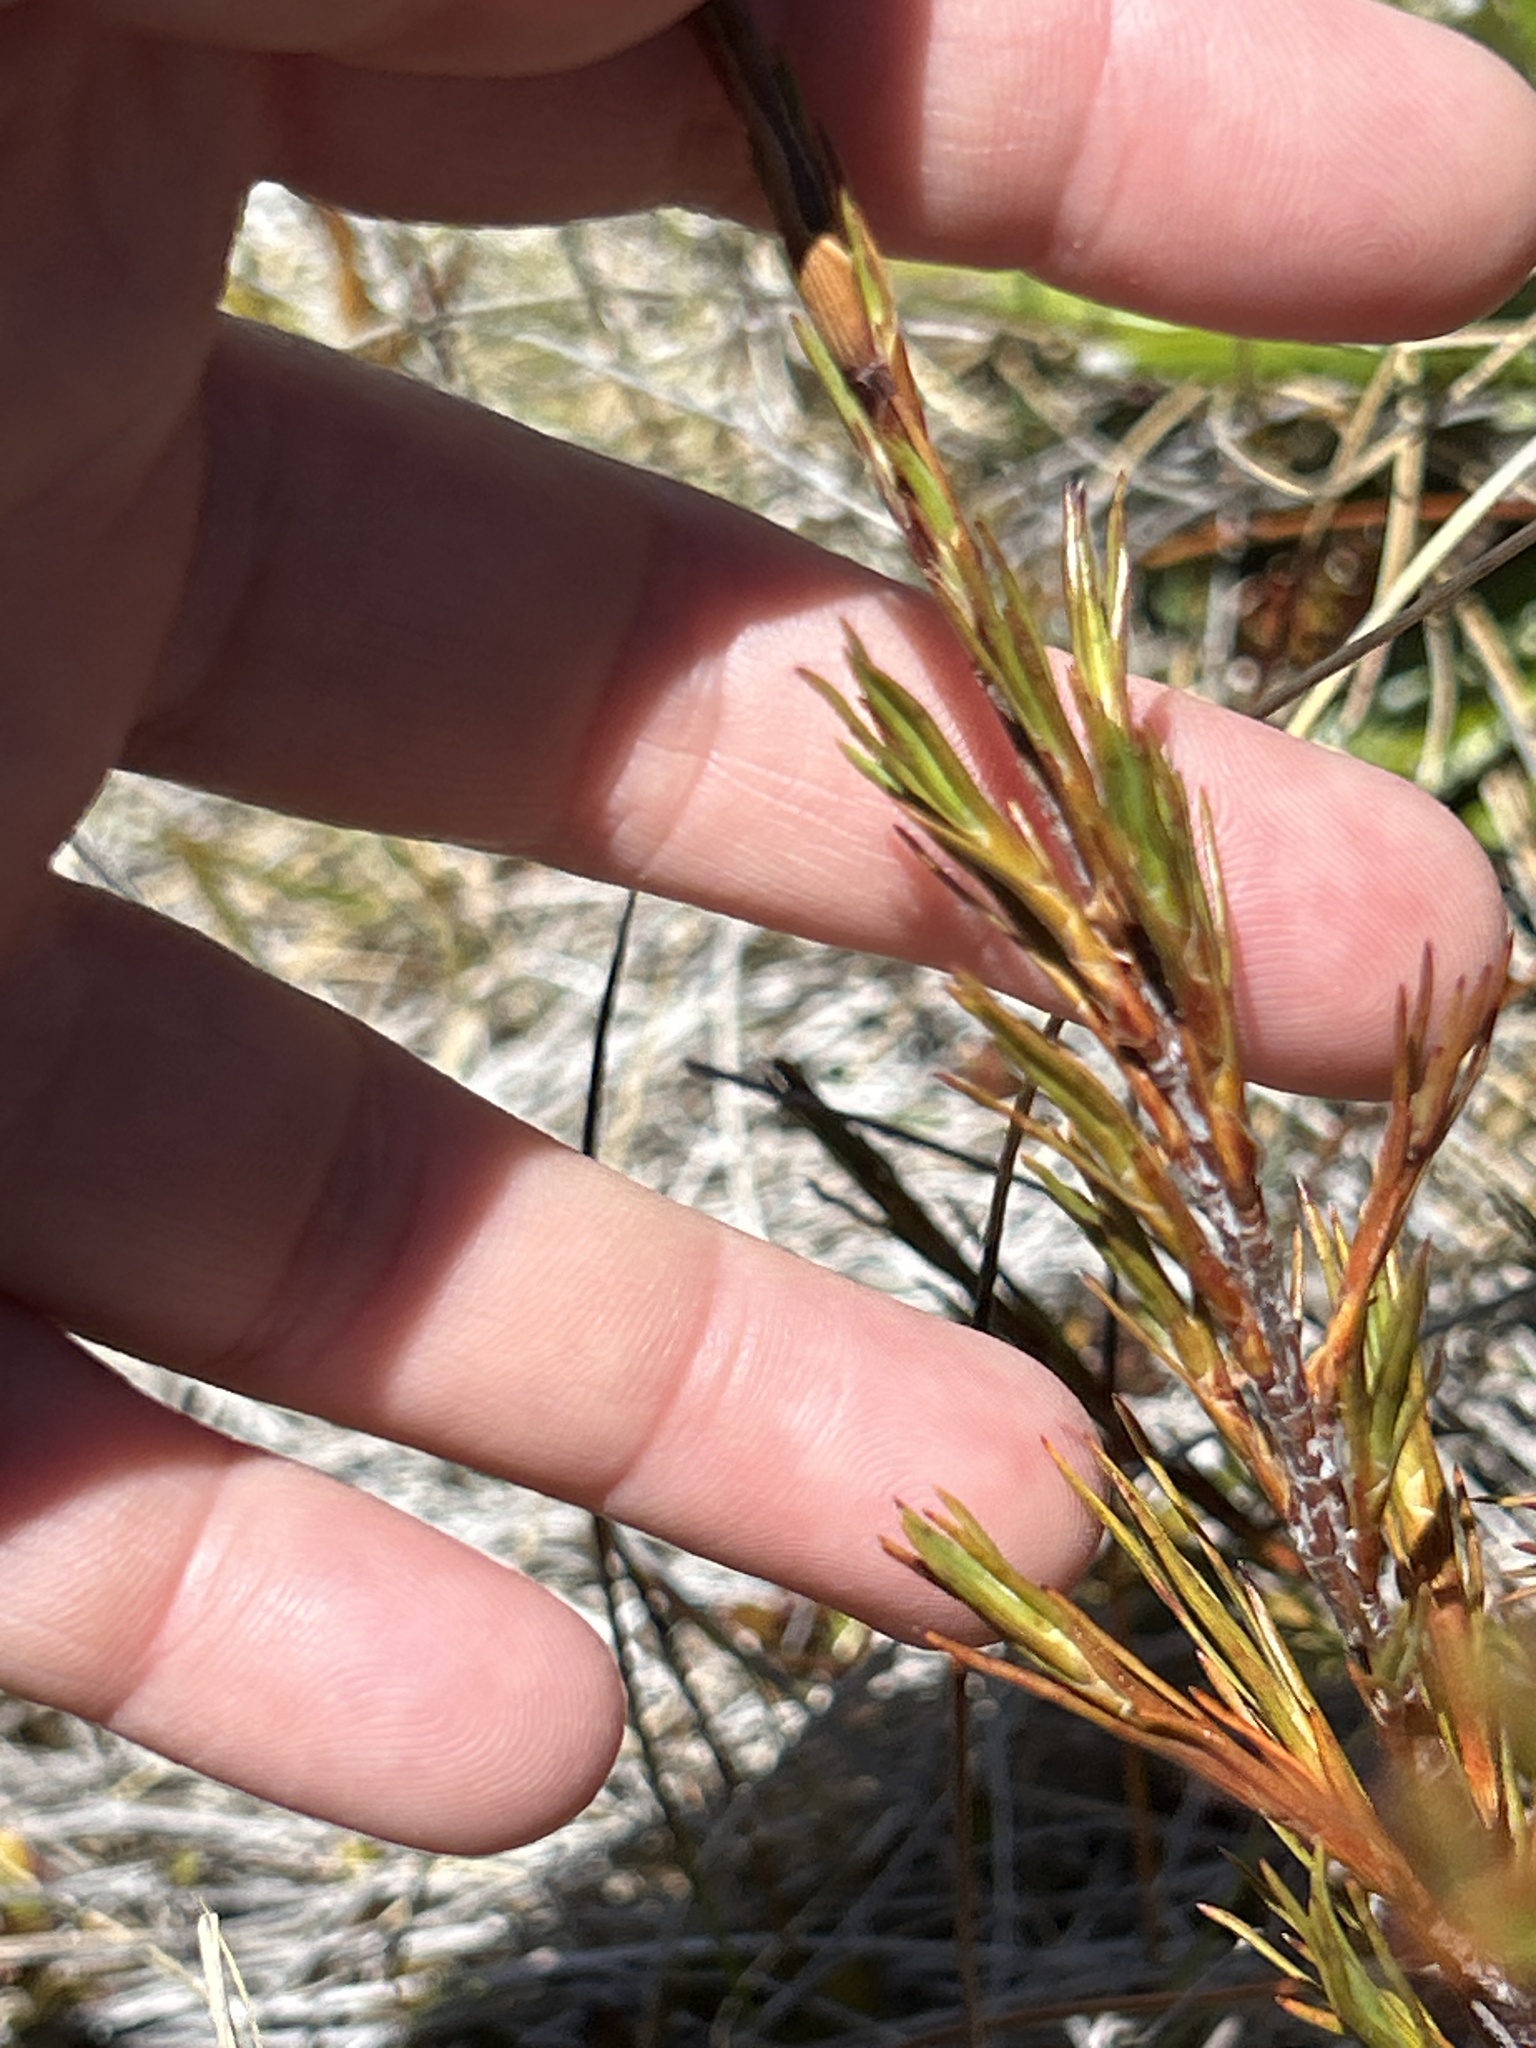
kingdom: Plantae
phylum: Tracheophyta
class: Magnoliopsida
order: Ericales
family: Ericaceae
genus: Dracophyllum
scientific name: Dracophyllum rosmarinifolium
